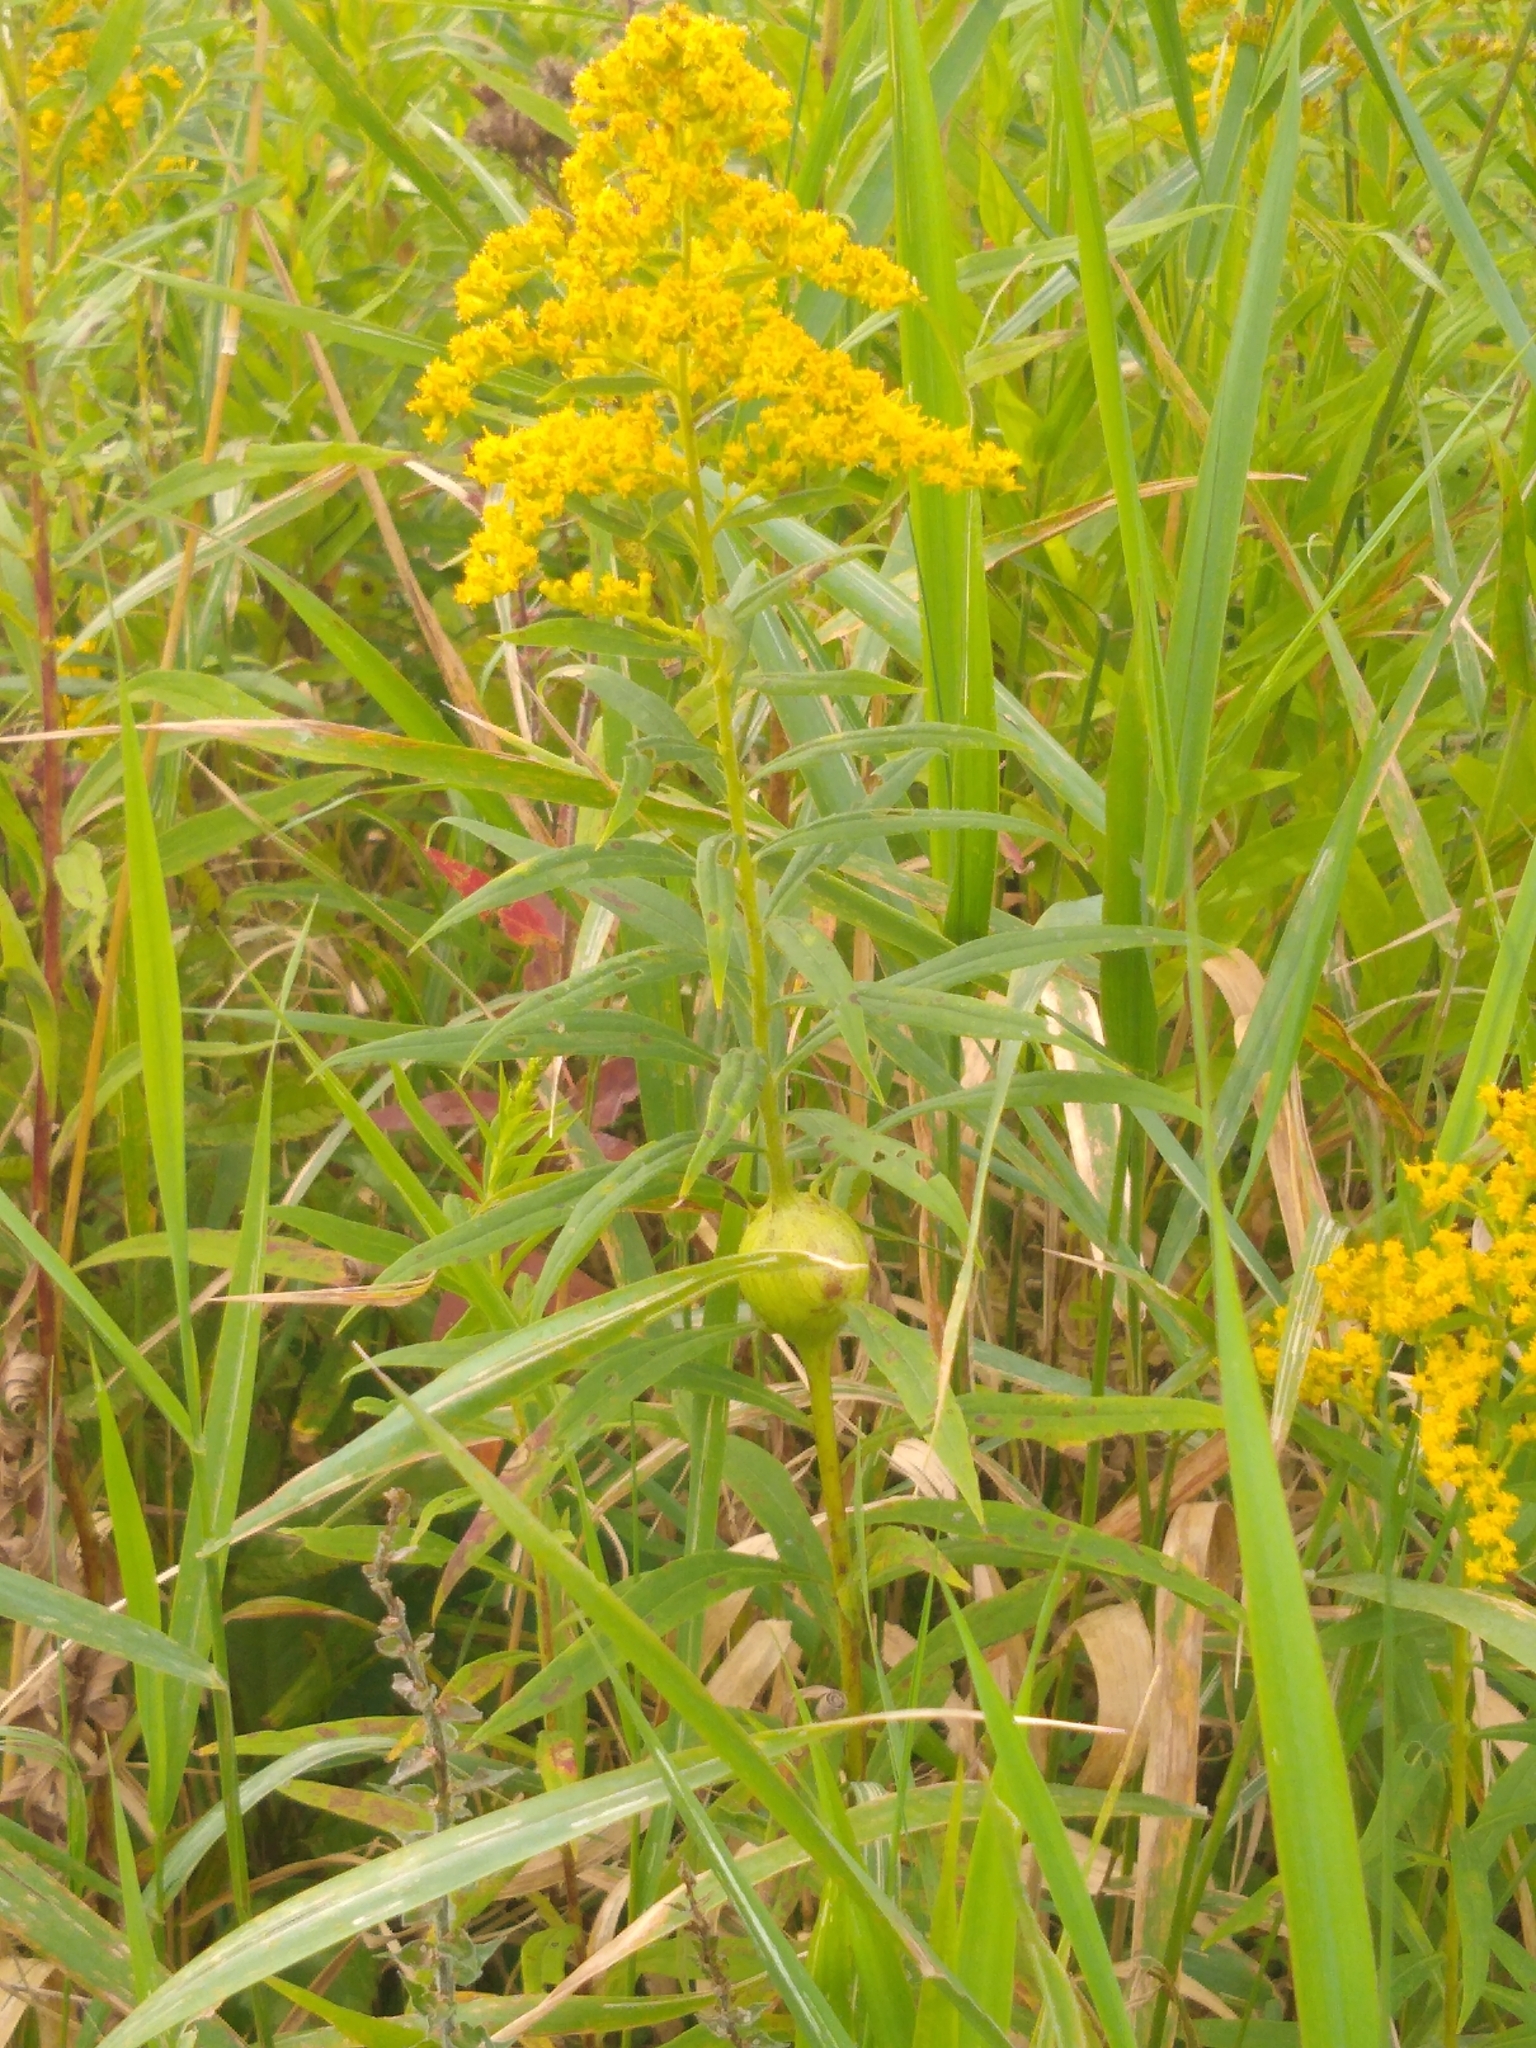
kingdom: Animalia
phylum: Arthropoda
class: Insecta
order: Diptera
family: Tephritidae
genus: Eurosta
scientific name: Eurosta solidaginis
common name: Goldenrod gall fly
